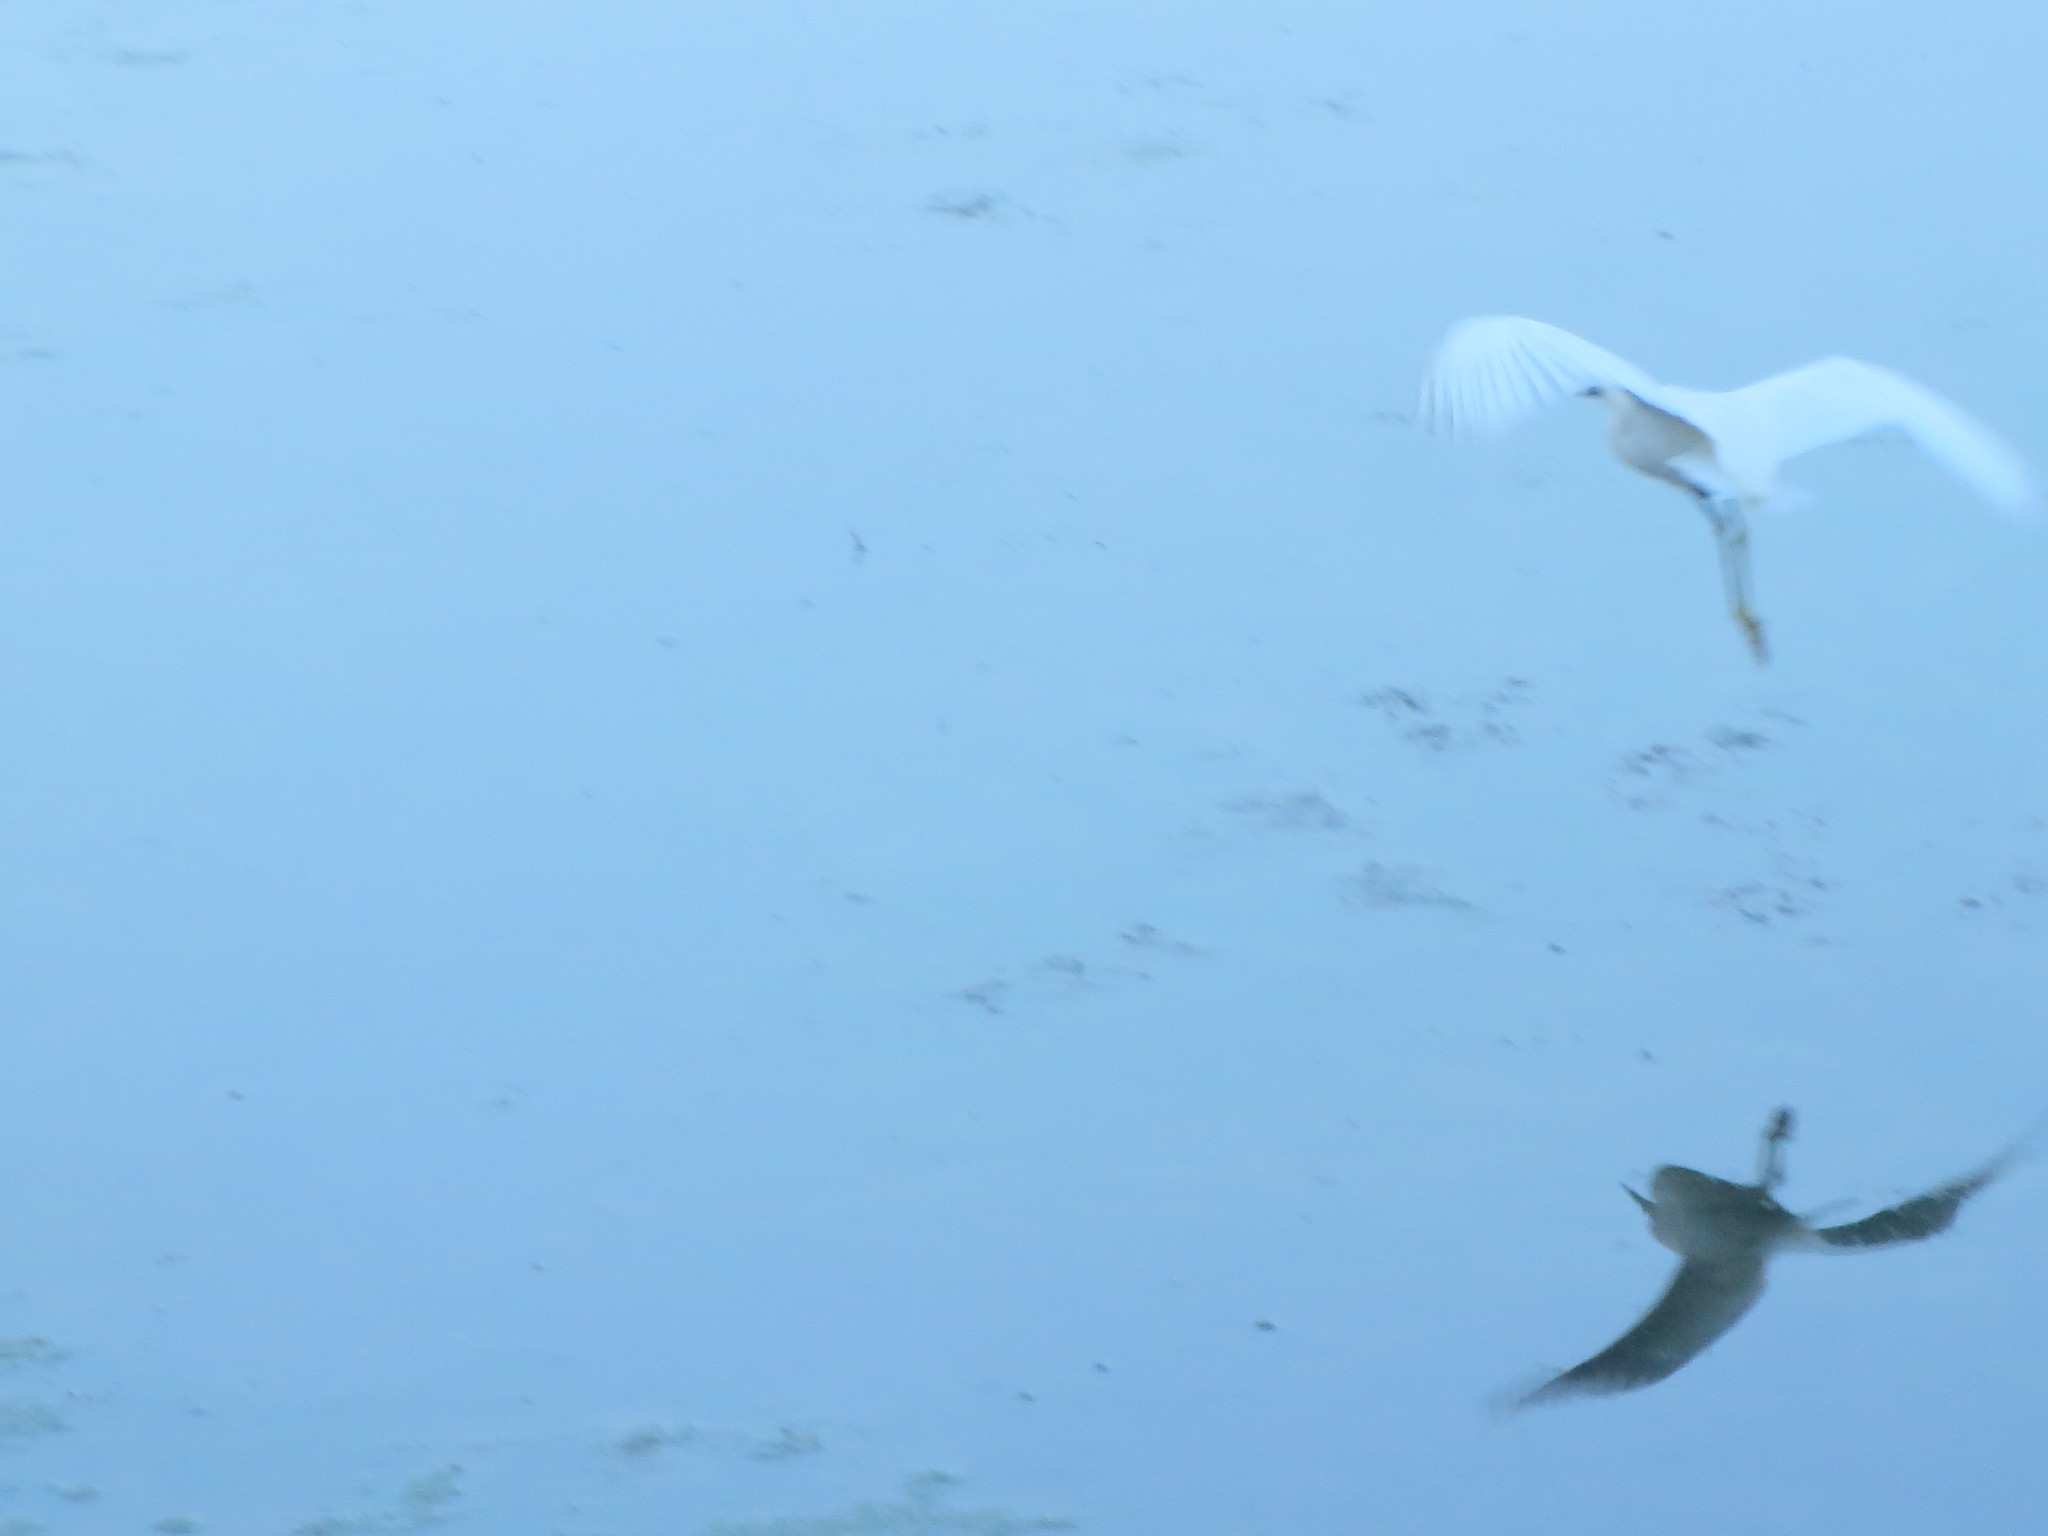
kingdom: Animalia
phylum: Chordata
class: Aves
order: Pelecaniformes
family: Ardeidae
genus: Egretta
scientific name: Egretta thula
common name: Snowy egret
